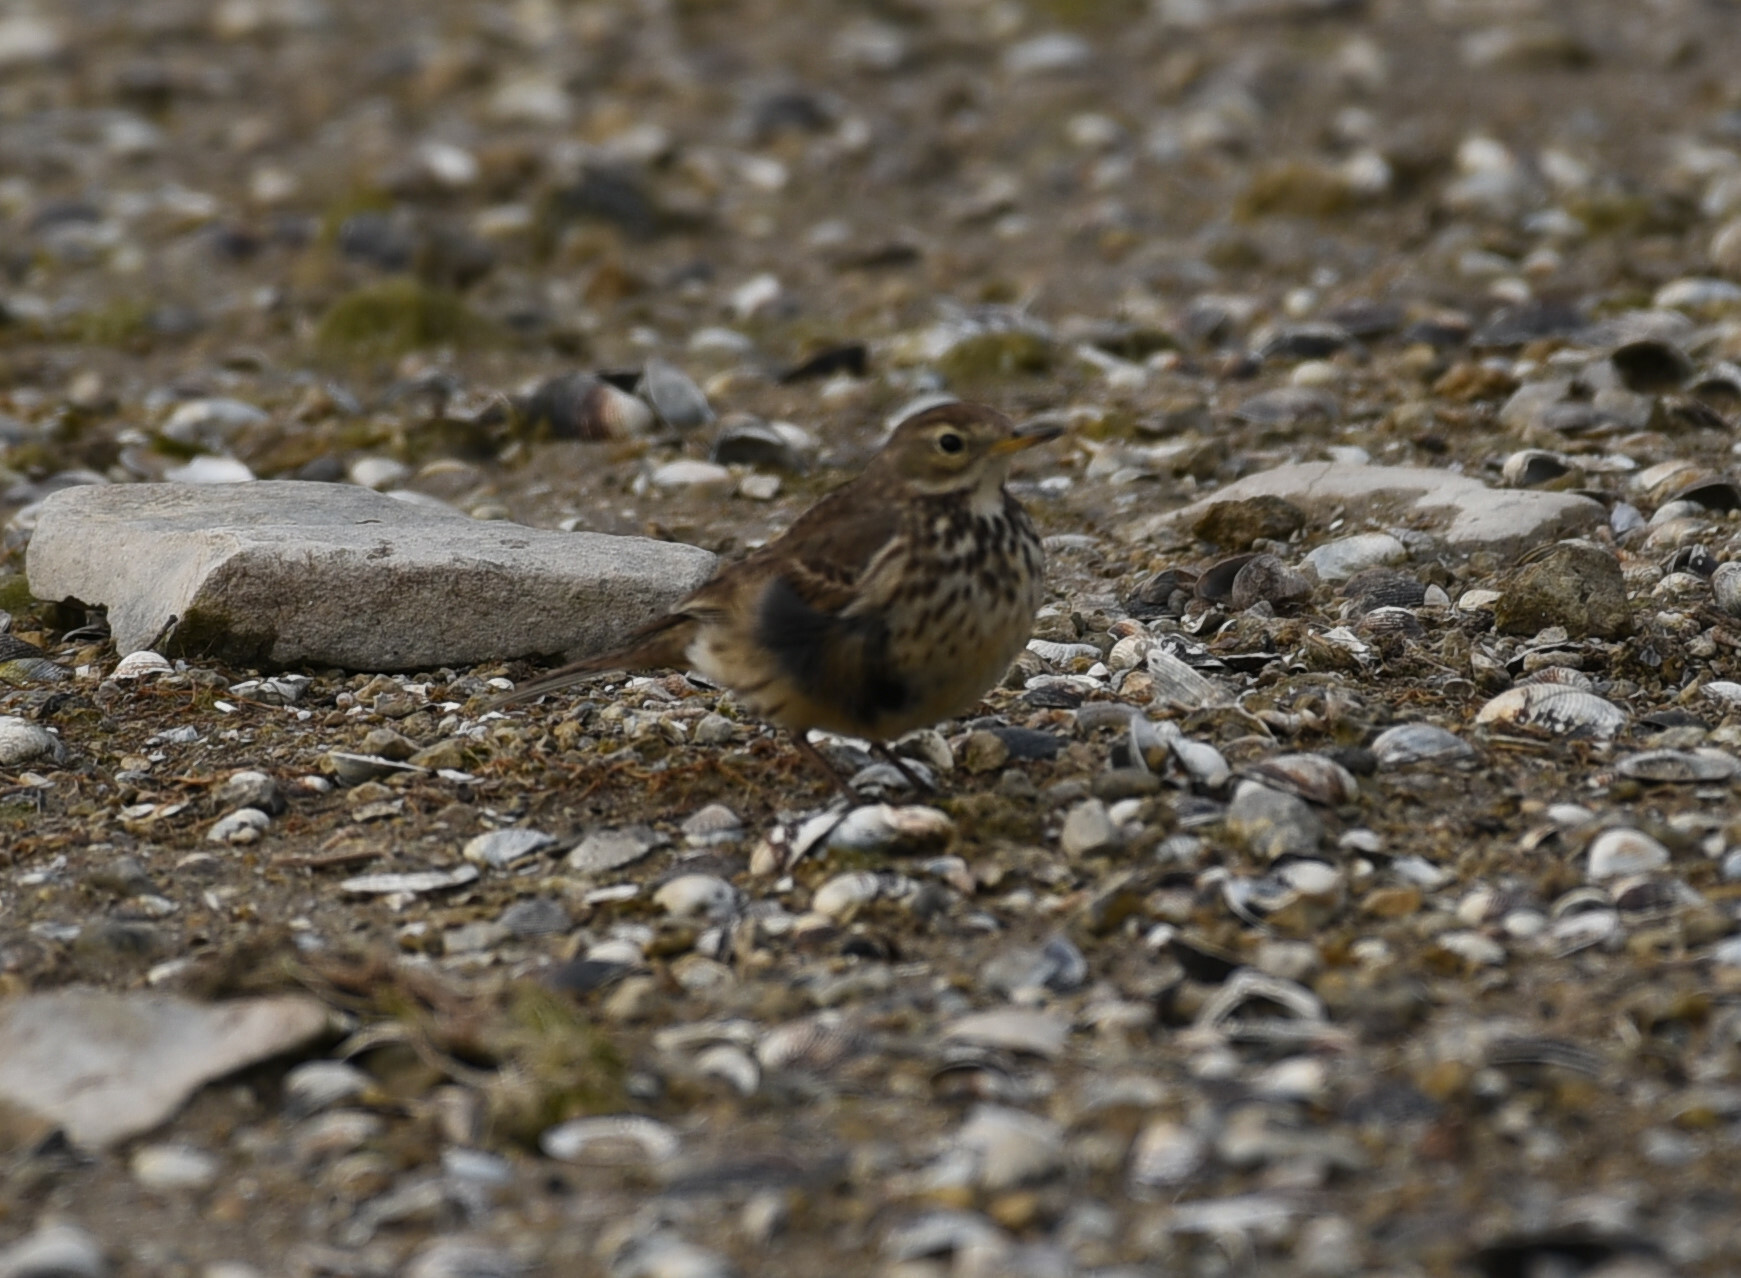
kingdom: Animalia
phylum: Chordata
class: Aves
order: Passeriformes
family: Motacillidae
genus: Anthus
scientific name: Anthus rubescens
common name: Buff-bellied pipit
